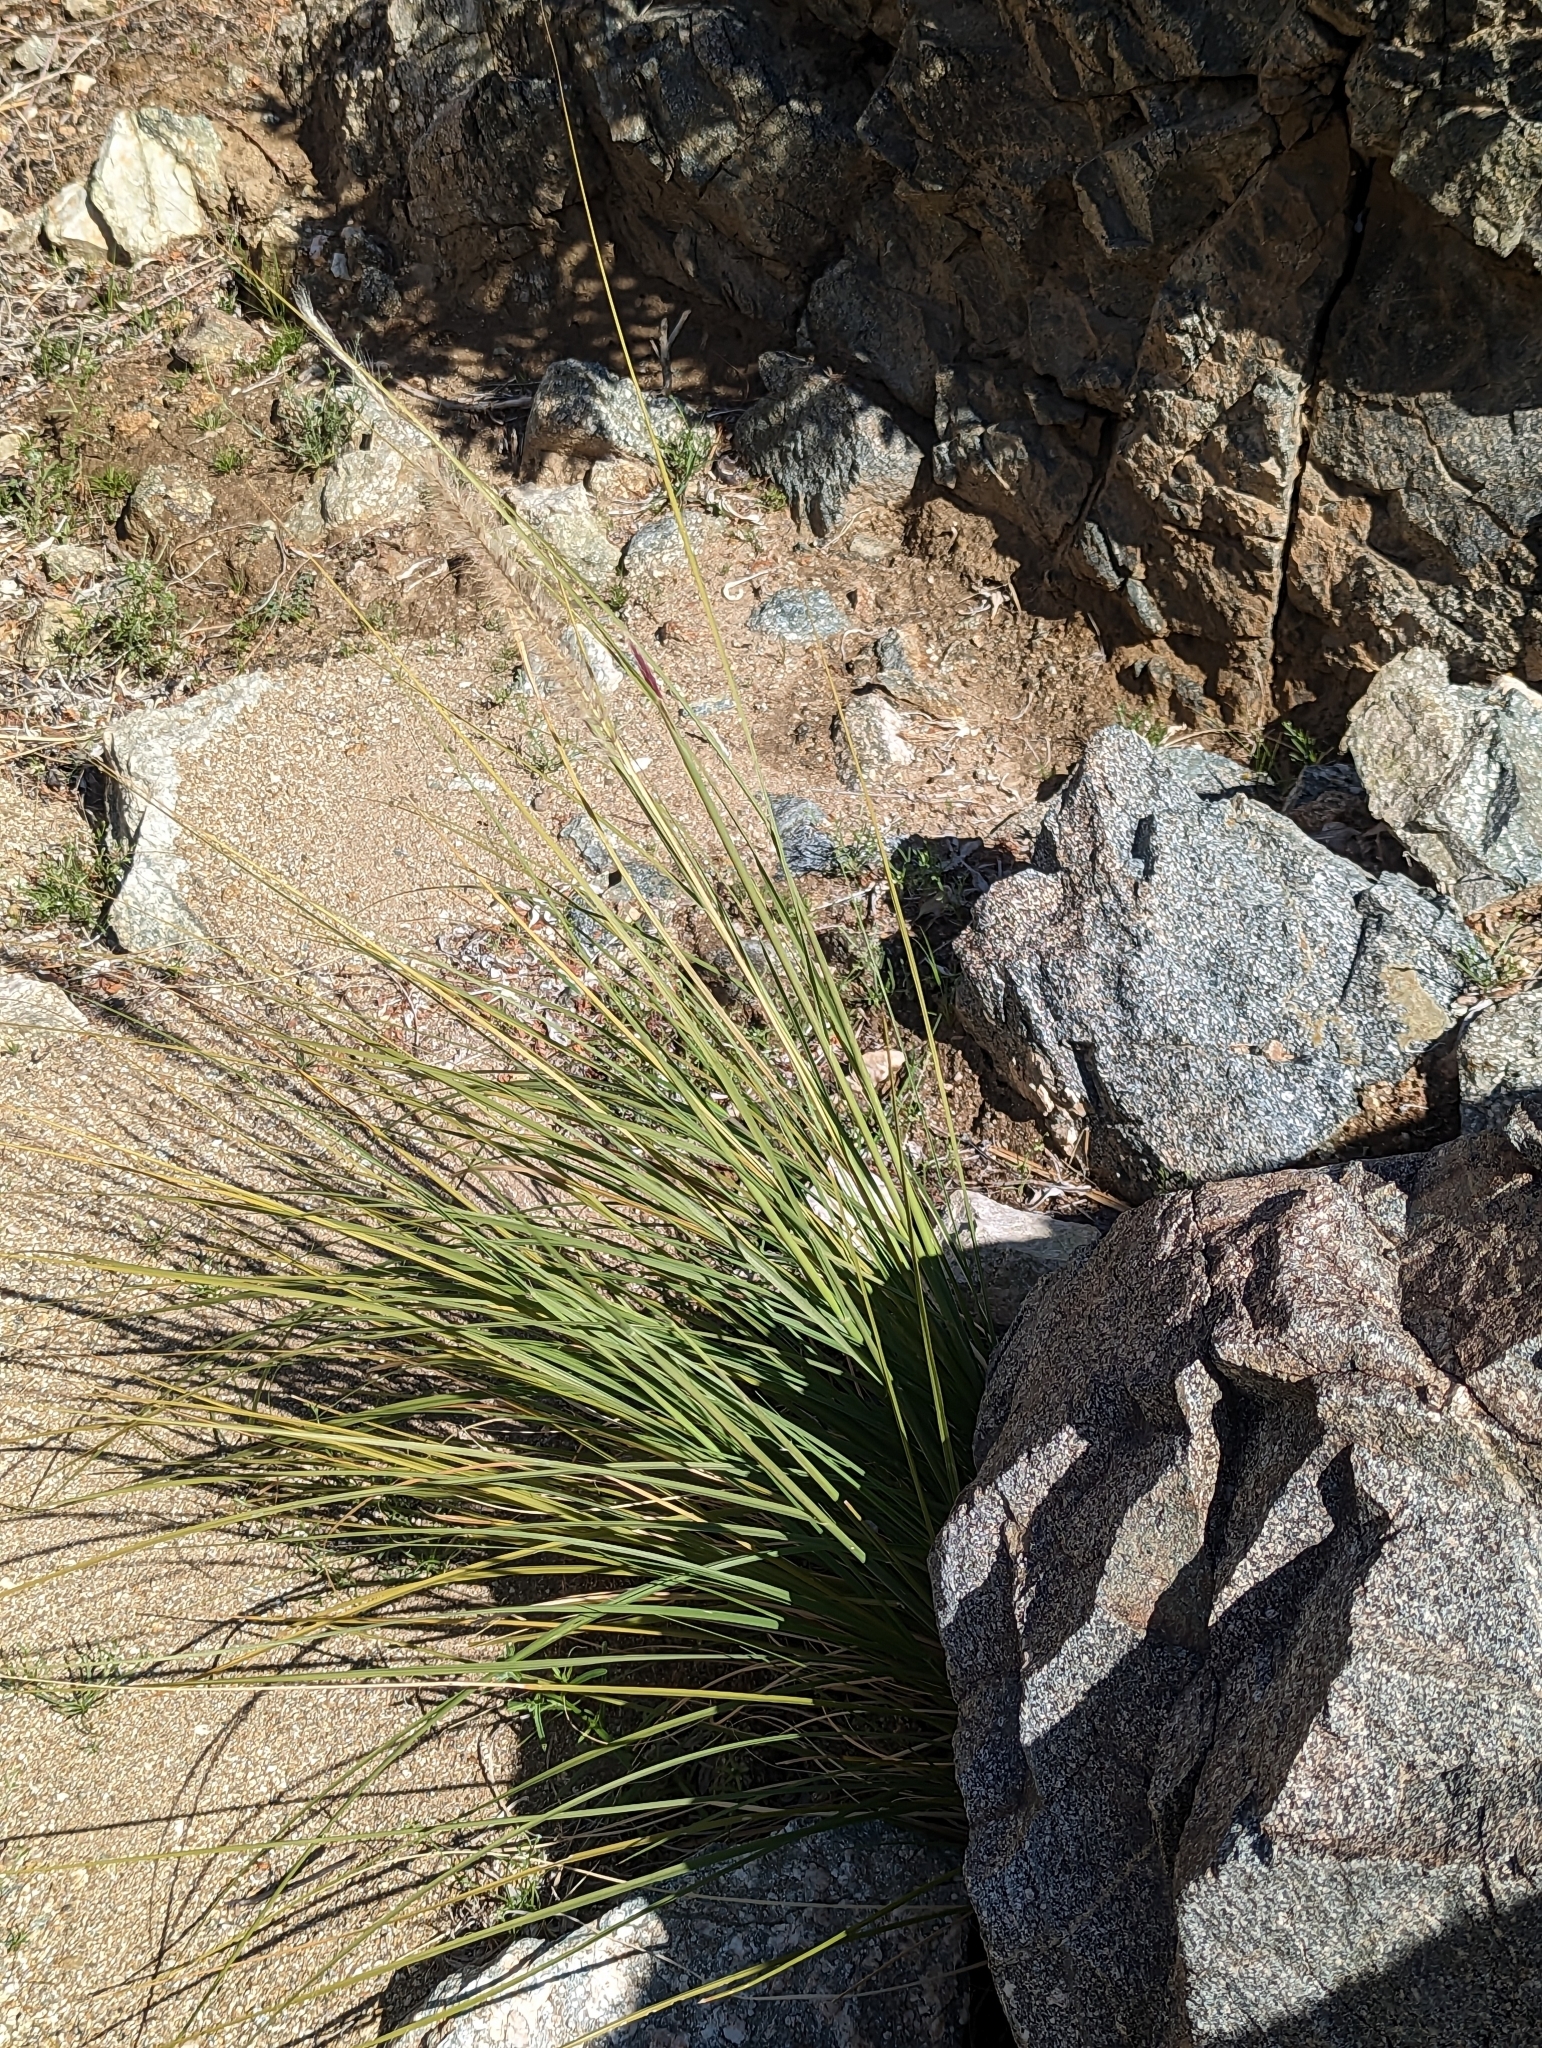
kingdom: Plantae
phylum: Tracheophyta
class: Liliopsida
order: Poales
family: Poaceae
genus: Cenchrus
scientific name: Cenchrus setaceus
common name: Crimson fountaingrass
